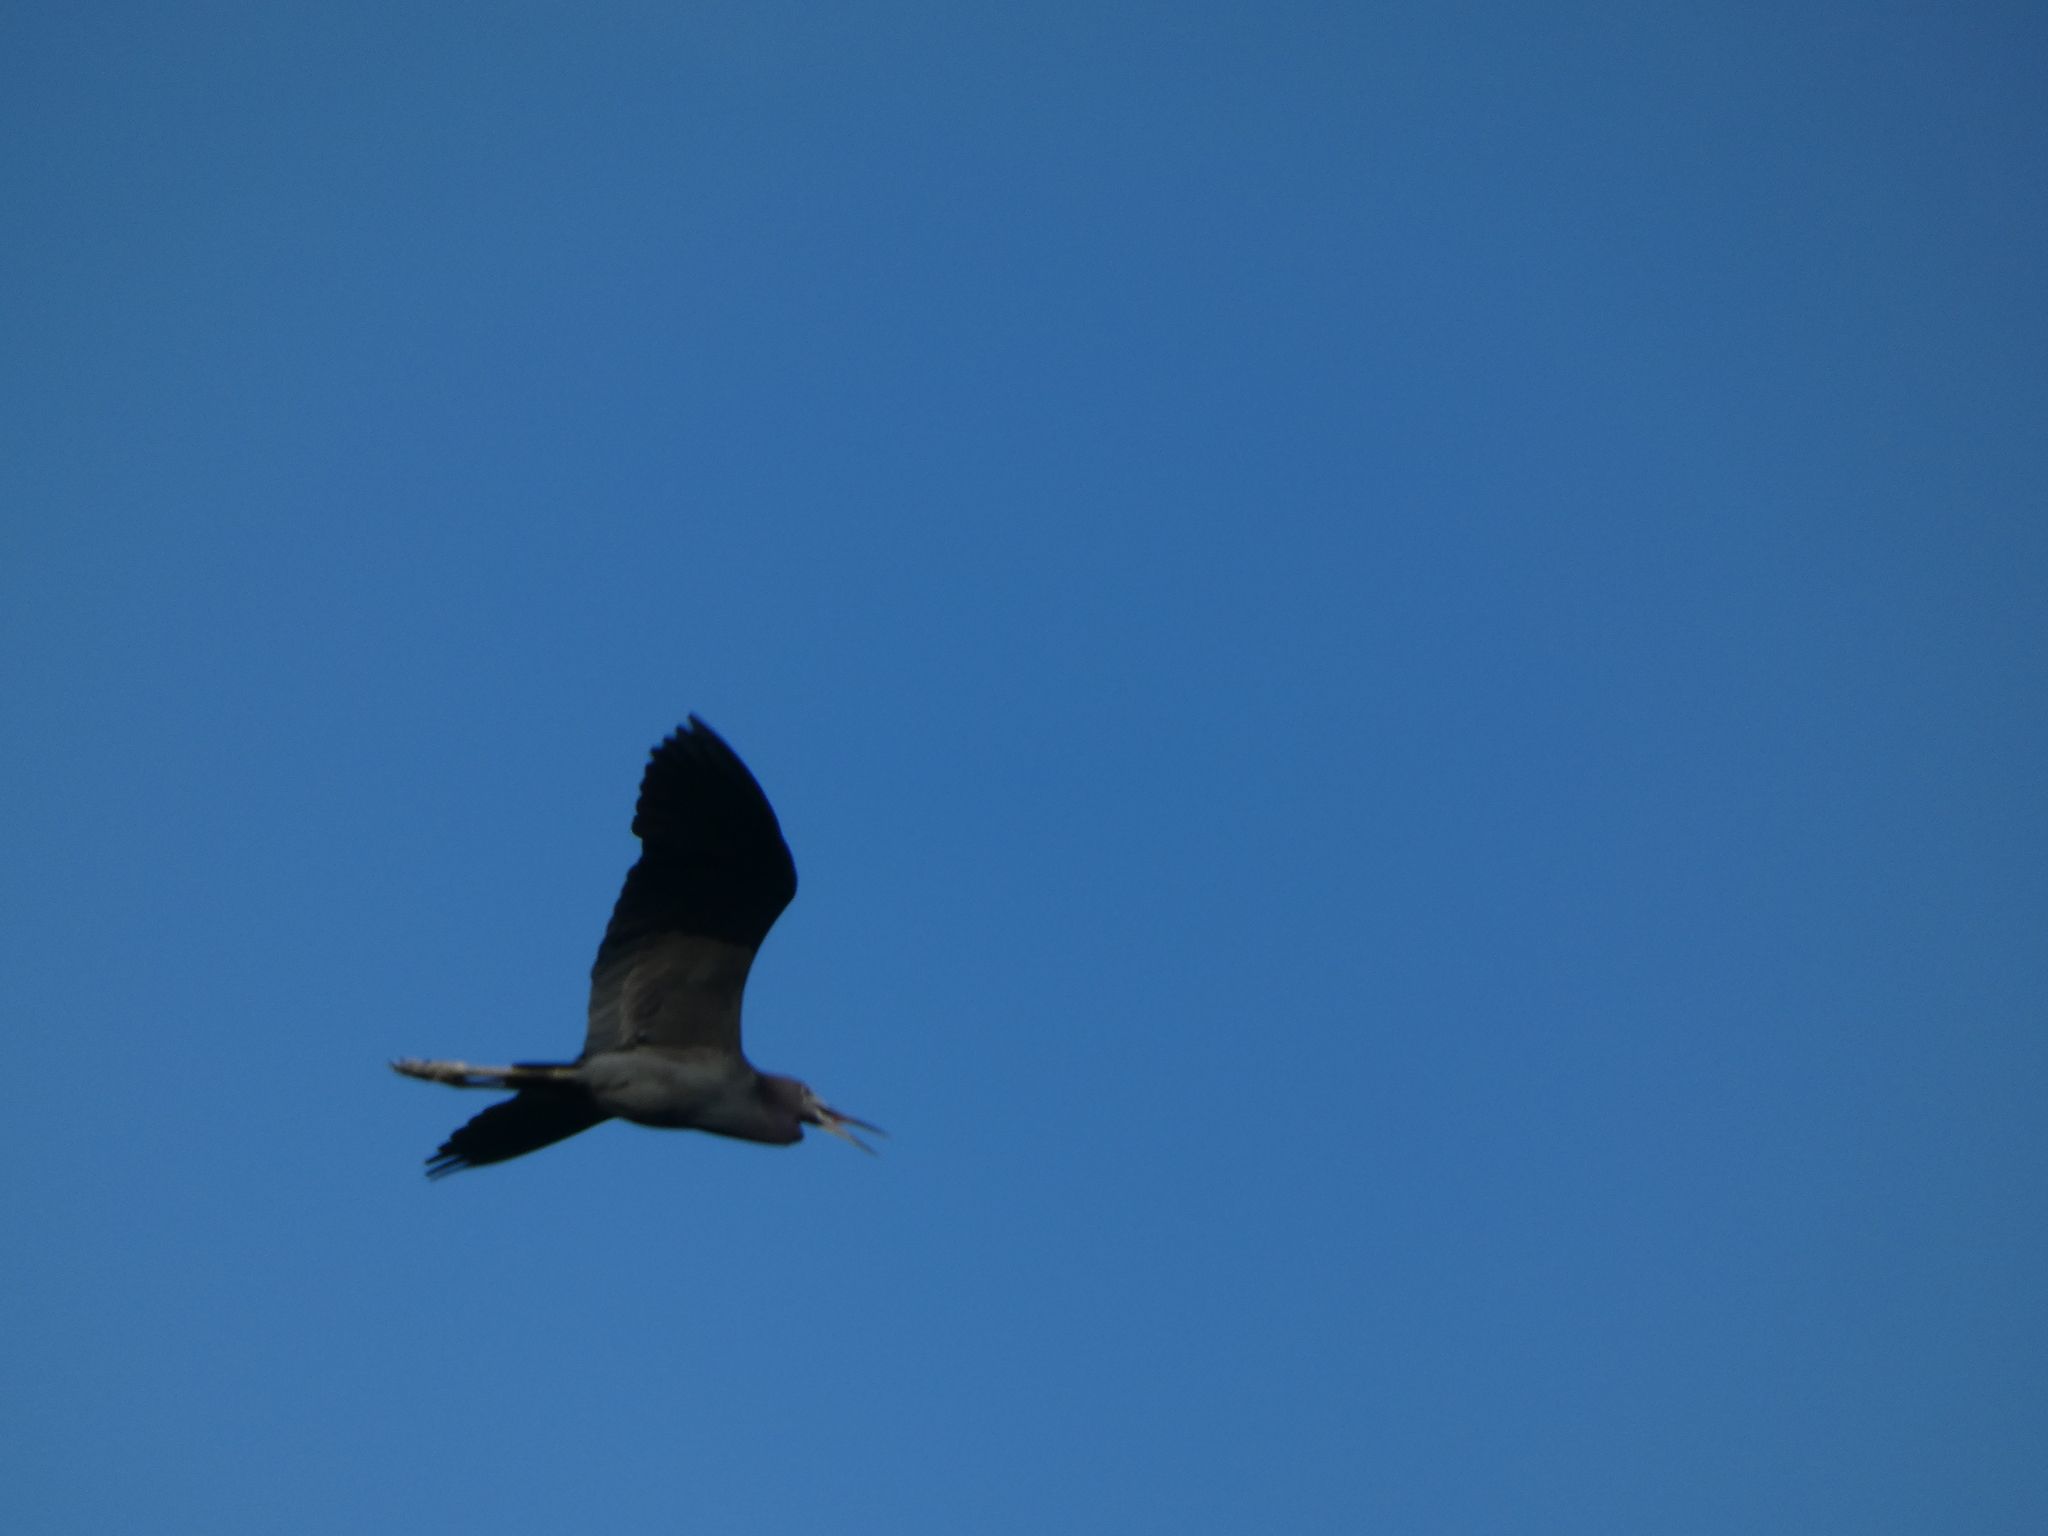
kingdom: Animalia
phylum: Chordata
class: Aves
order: Pelecaniformes
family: Ardeidae
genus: Egretta
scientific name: Egretta caerulea
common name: Little blue heron
